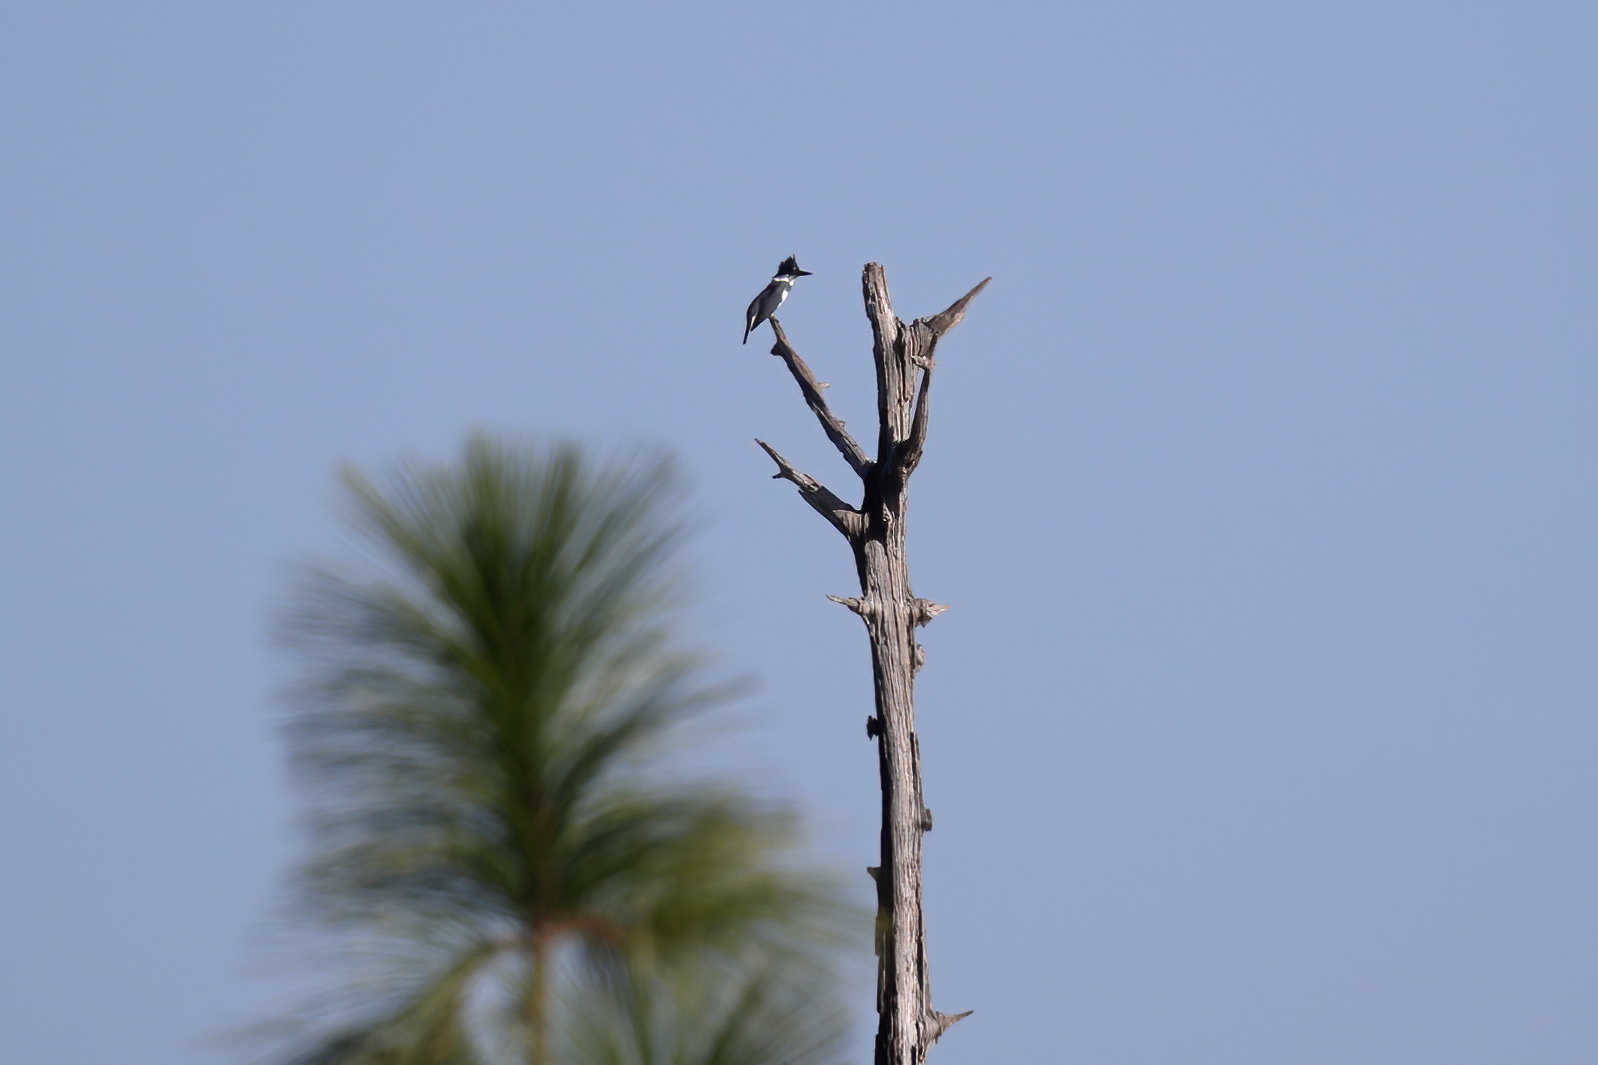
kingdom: Animalia
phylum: Chordata
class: Aves
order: Coraciiformes
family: Alcedinidae
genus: Megaceryle
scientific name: Megaceryle alcyon
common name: Belted kingfisher
